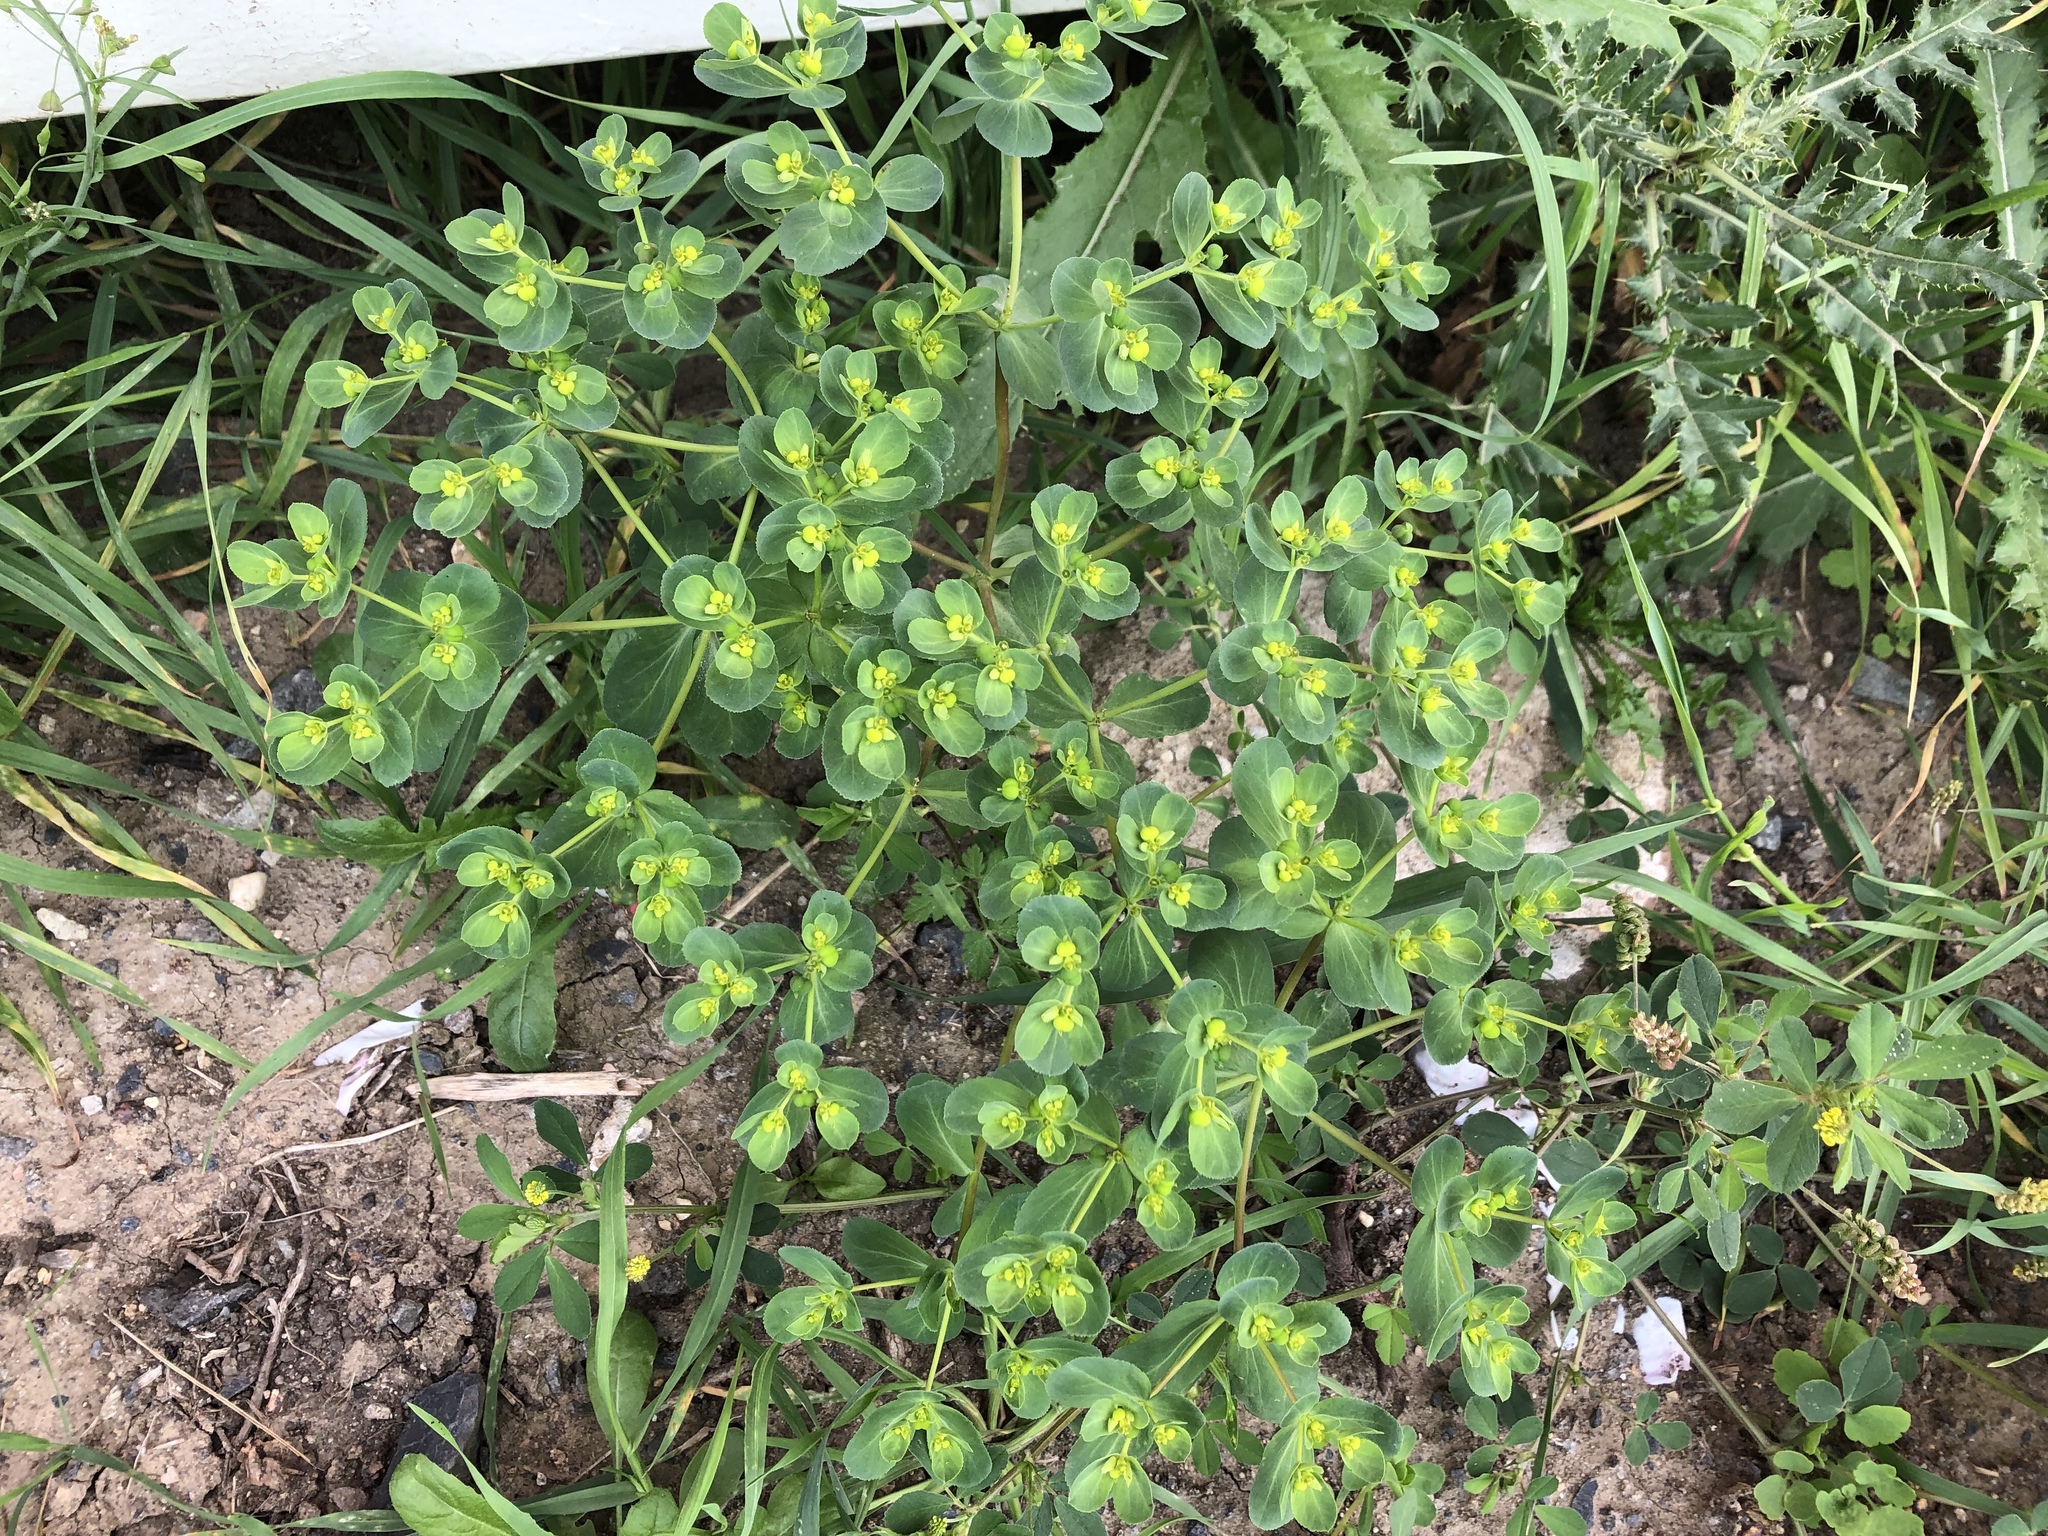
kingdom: Plantae
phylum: Tracheophyta
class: Magnoliopsida
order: Malpighiales
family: Euphorbiaceae
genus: Euphorbia
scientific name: Euphorbia helioscopia
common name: Sun spurge
